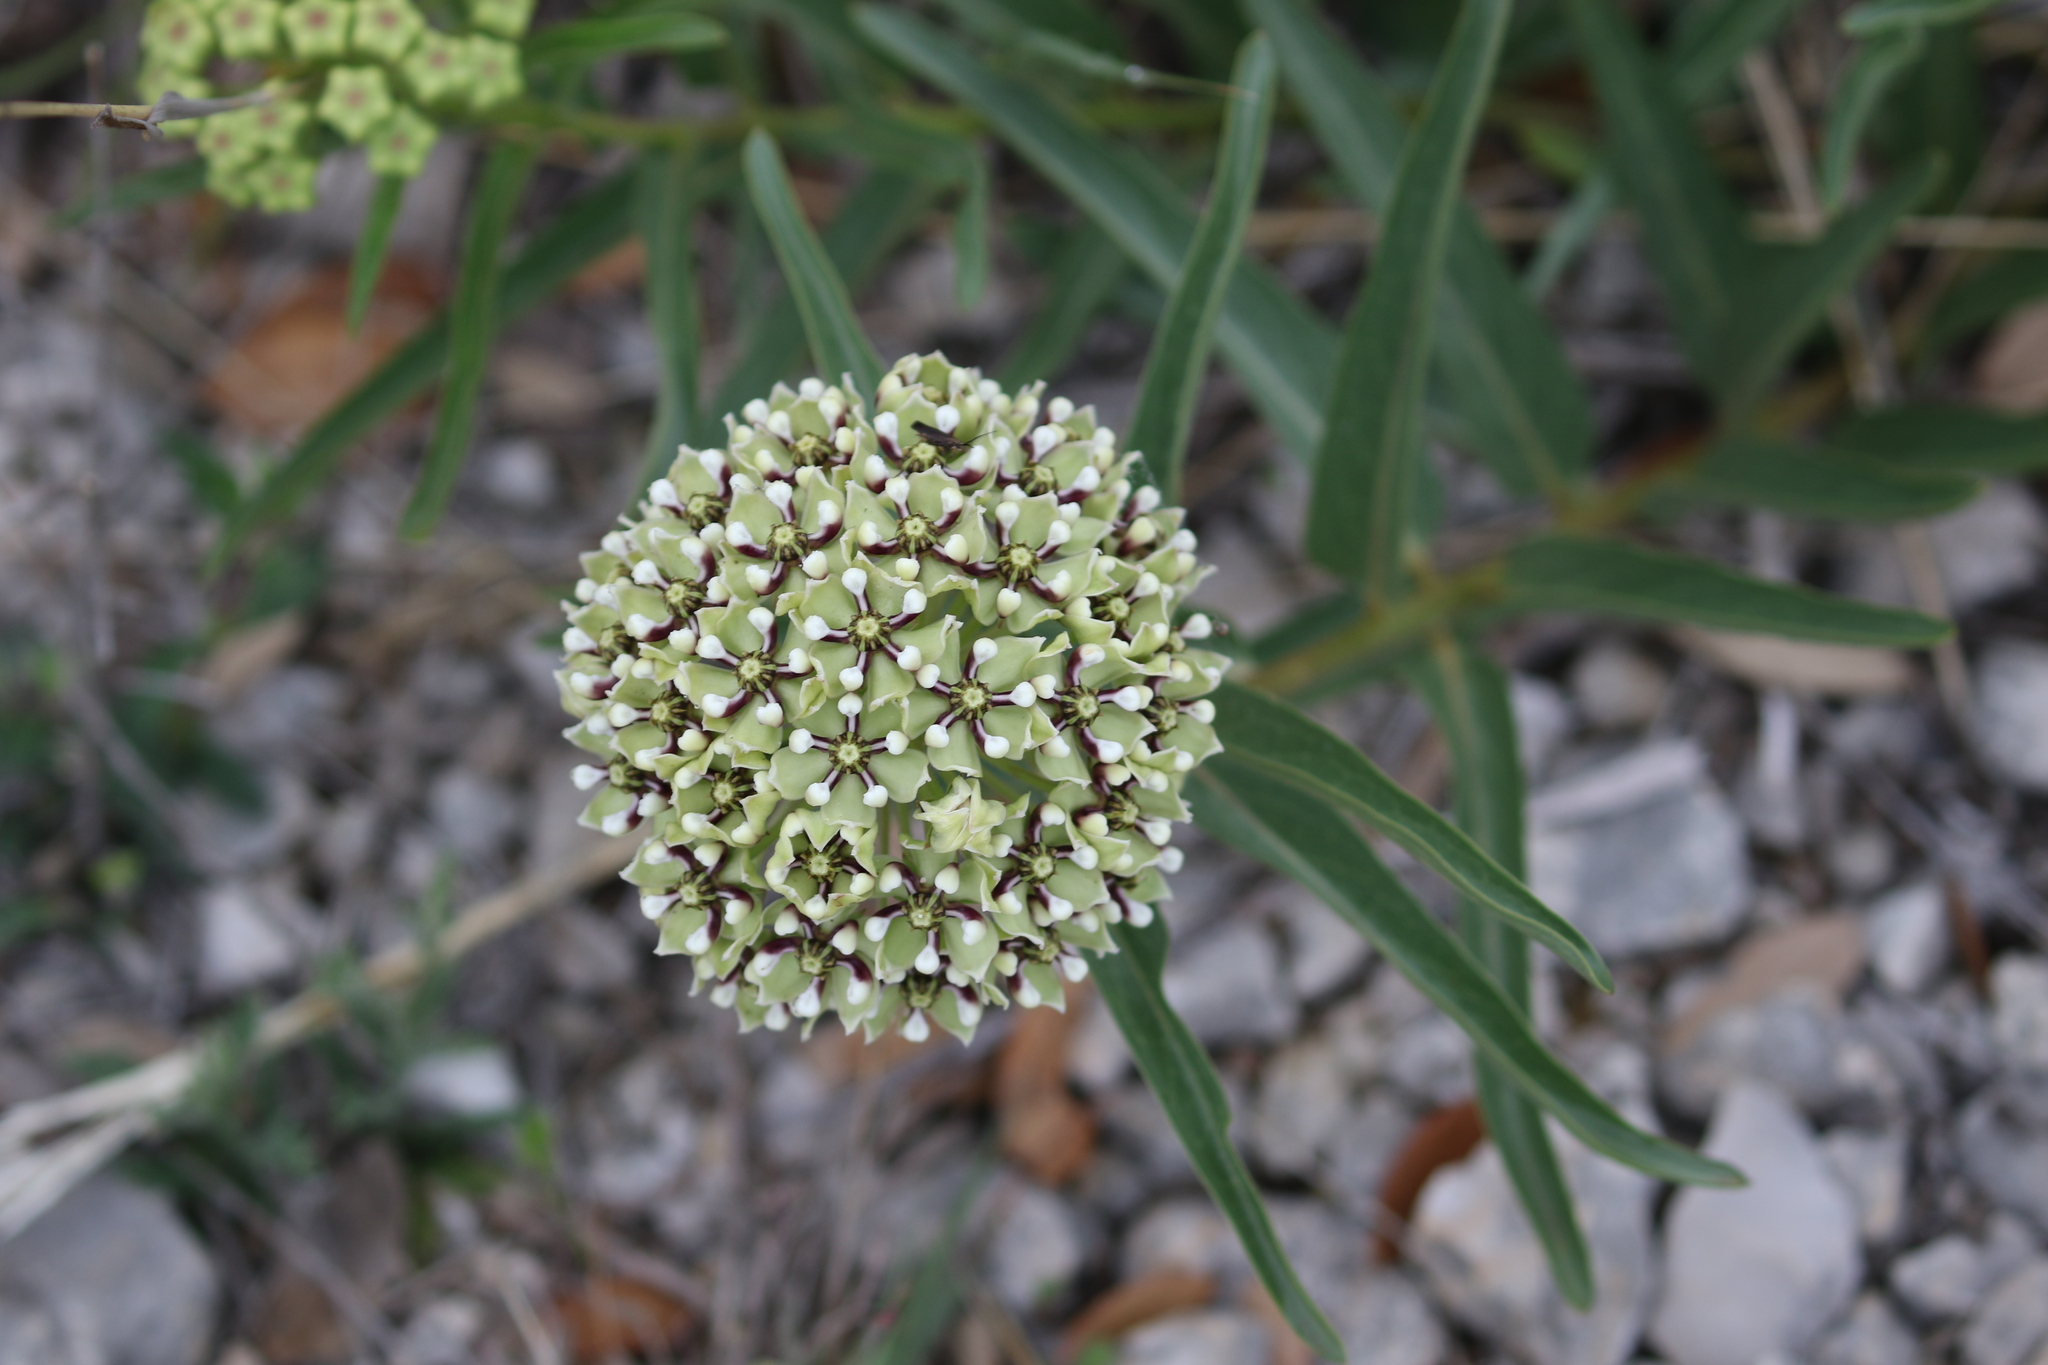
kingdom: Plantae
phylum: Tracheophyta
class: Magnoliopsida
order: Gentianales
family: Apocynaceae
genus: Asclepias
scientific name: Asclepias asperula
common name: Antelope horns
